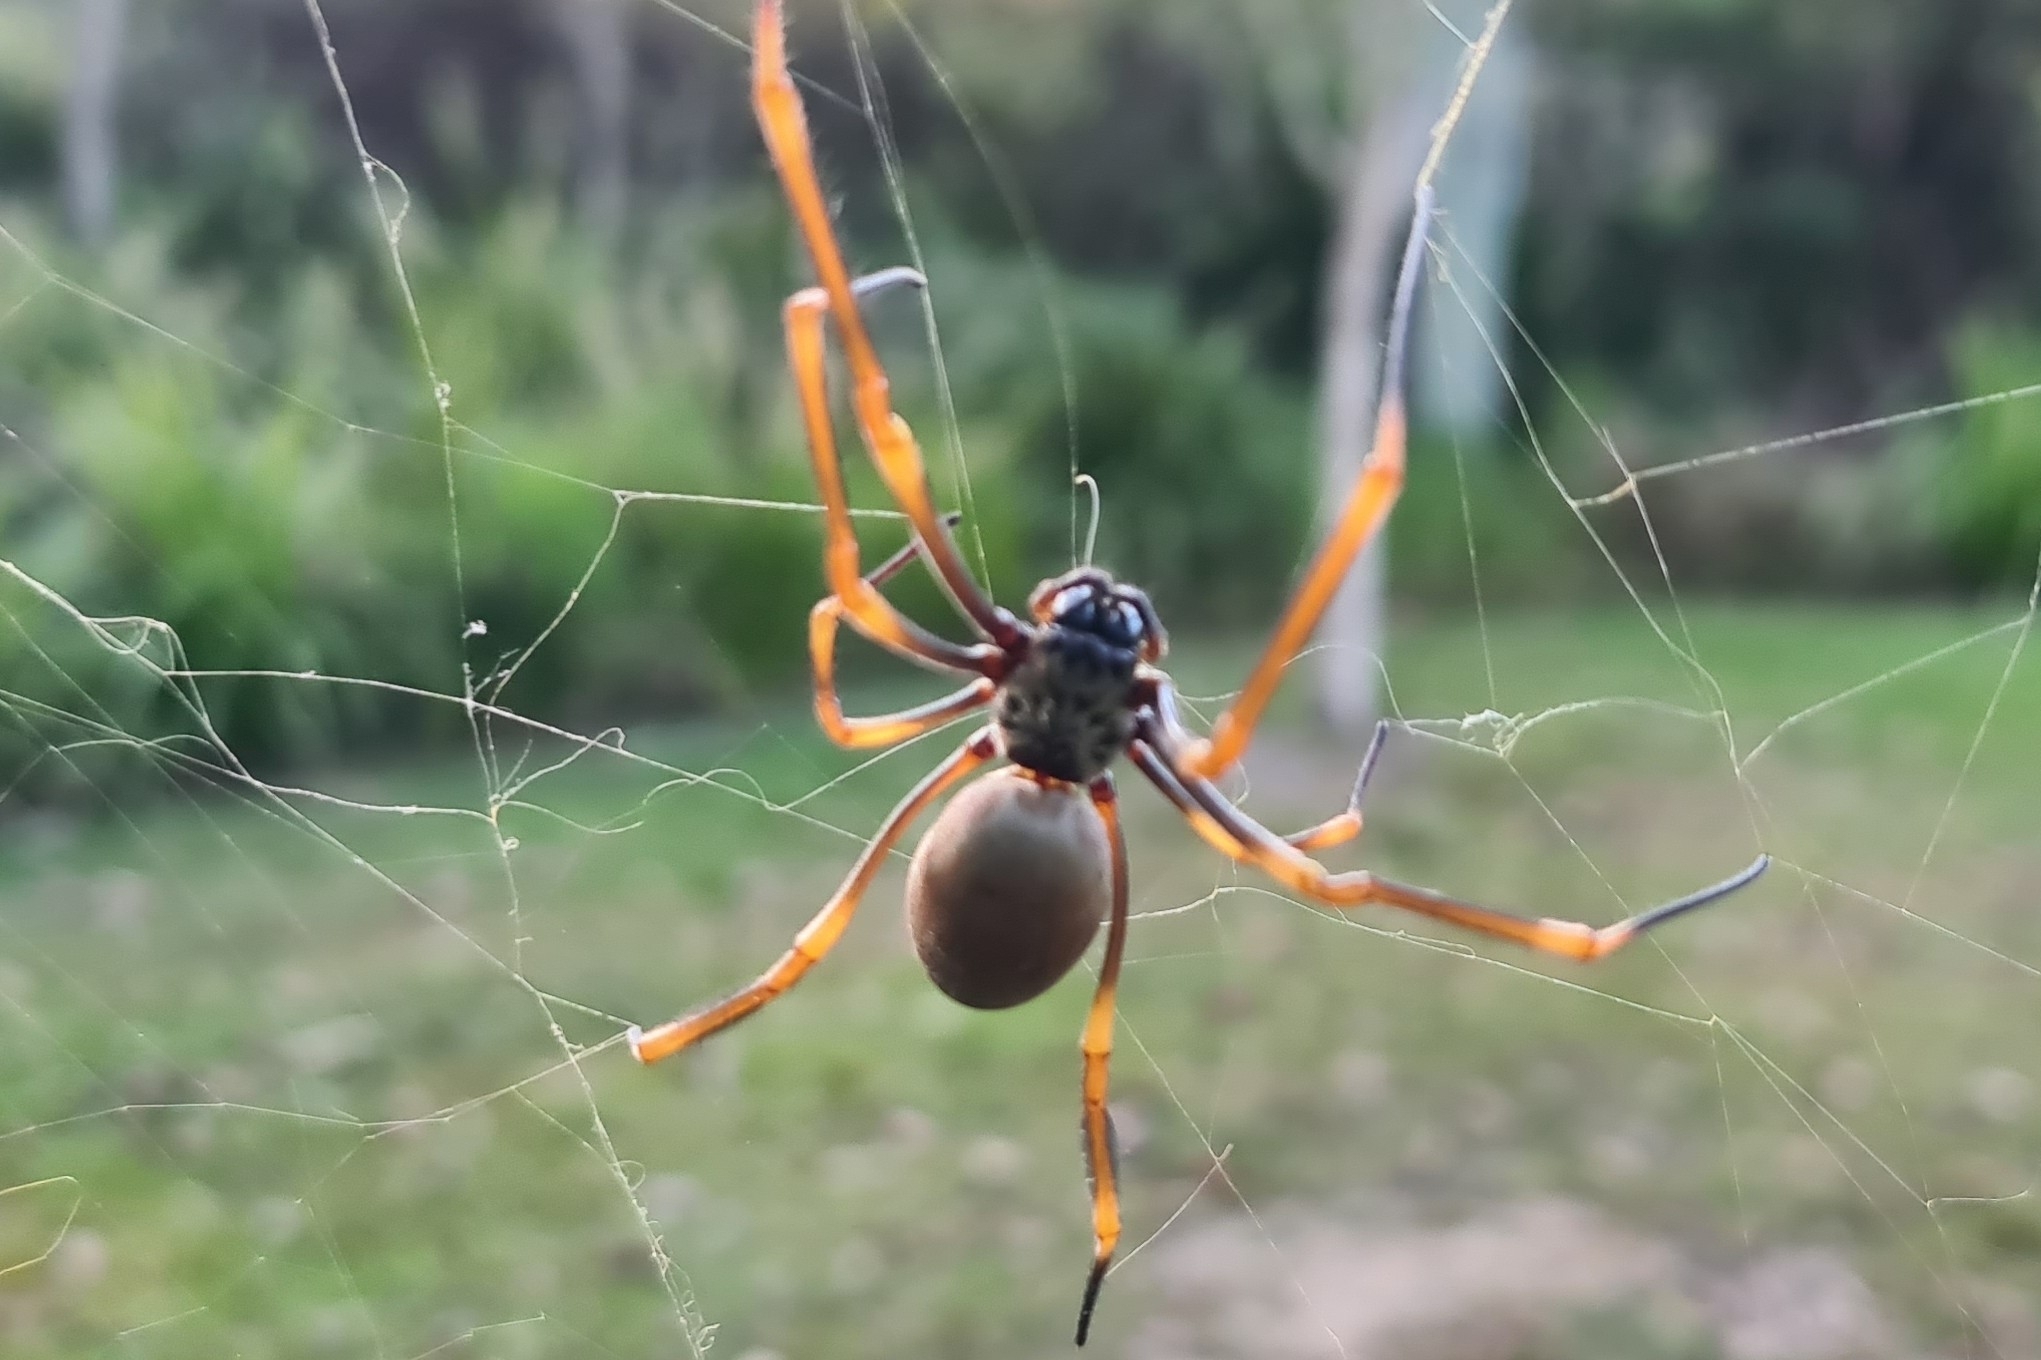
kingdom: Animalia
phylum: Arthropoda
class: Arachnida
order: Araneae
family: Araneidae
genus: Trichonephila
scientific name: Trichonephila plumipes
